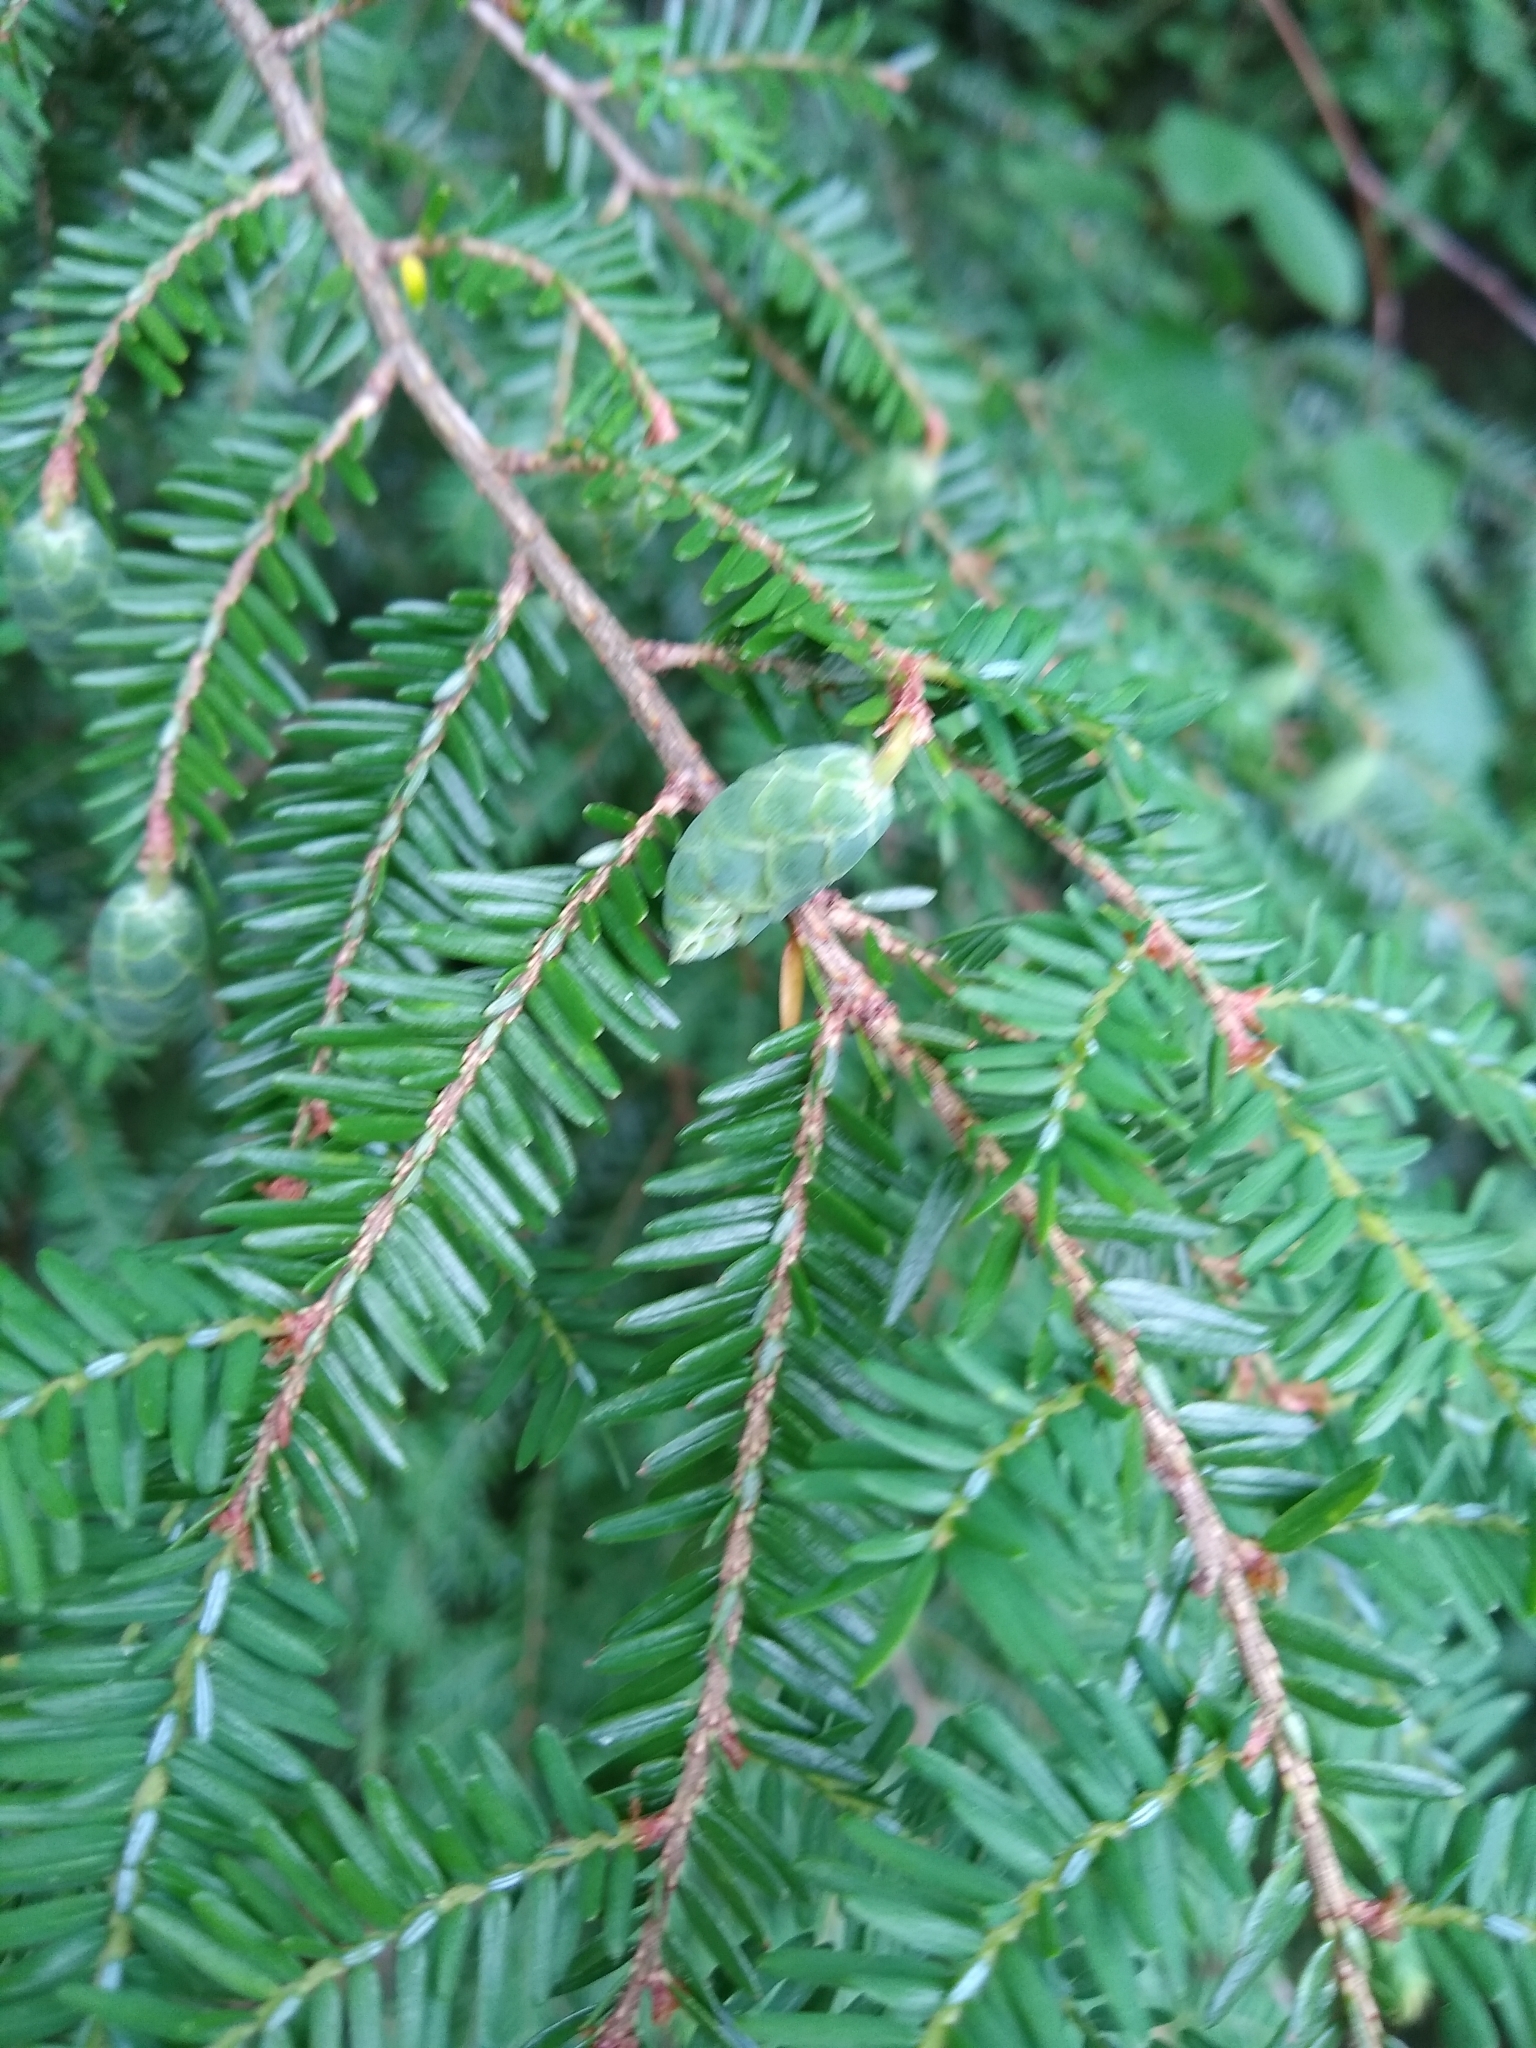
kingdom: Plantae
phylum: Tracheophyta
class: Pinopsida
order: Pinales
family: Pinaceae
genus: Tsuga
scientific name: Tsuga canadensis
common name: Eastern hemlock
